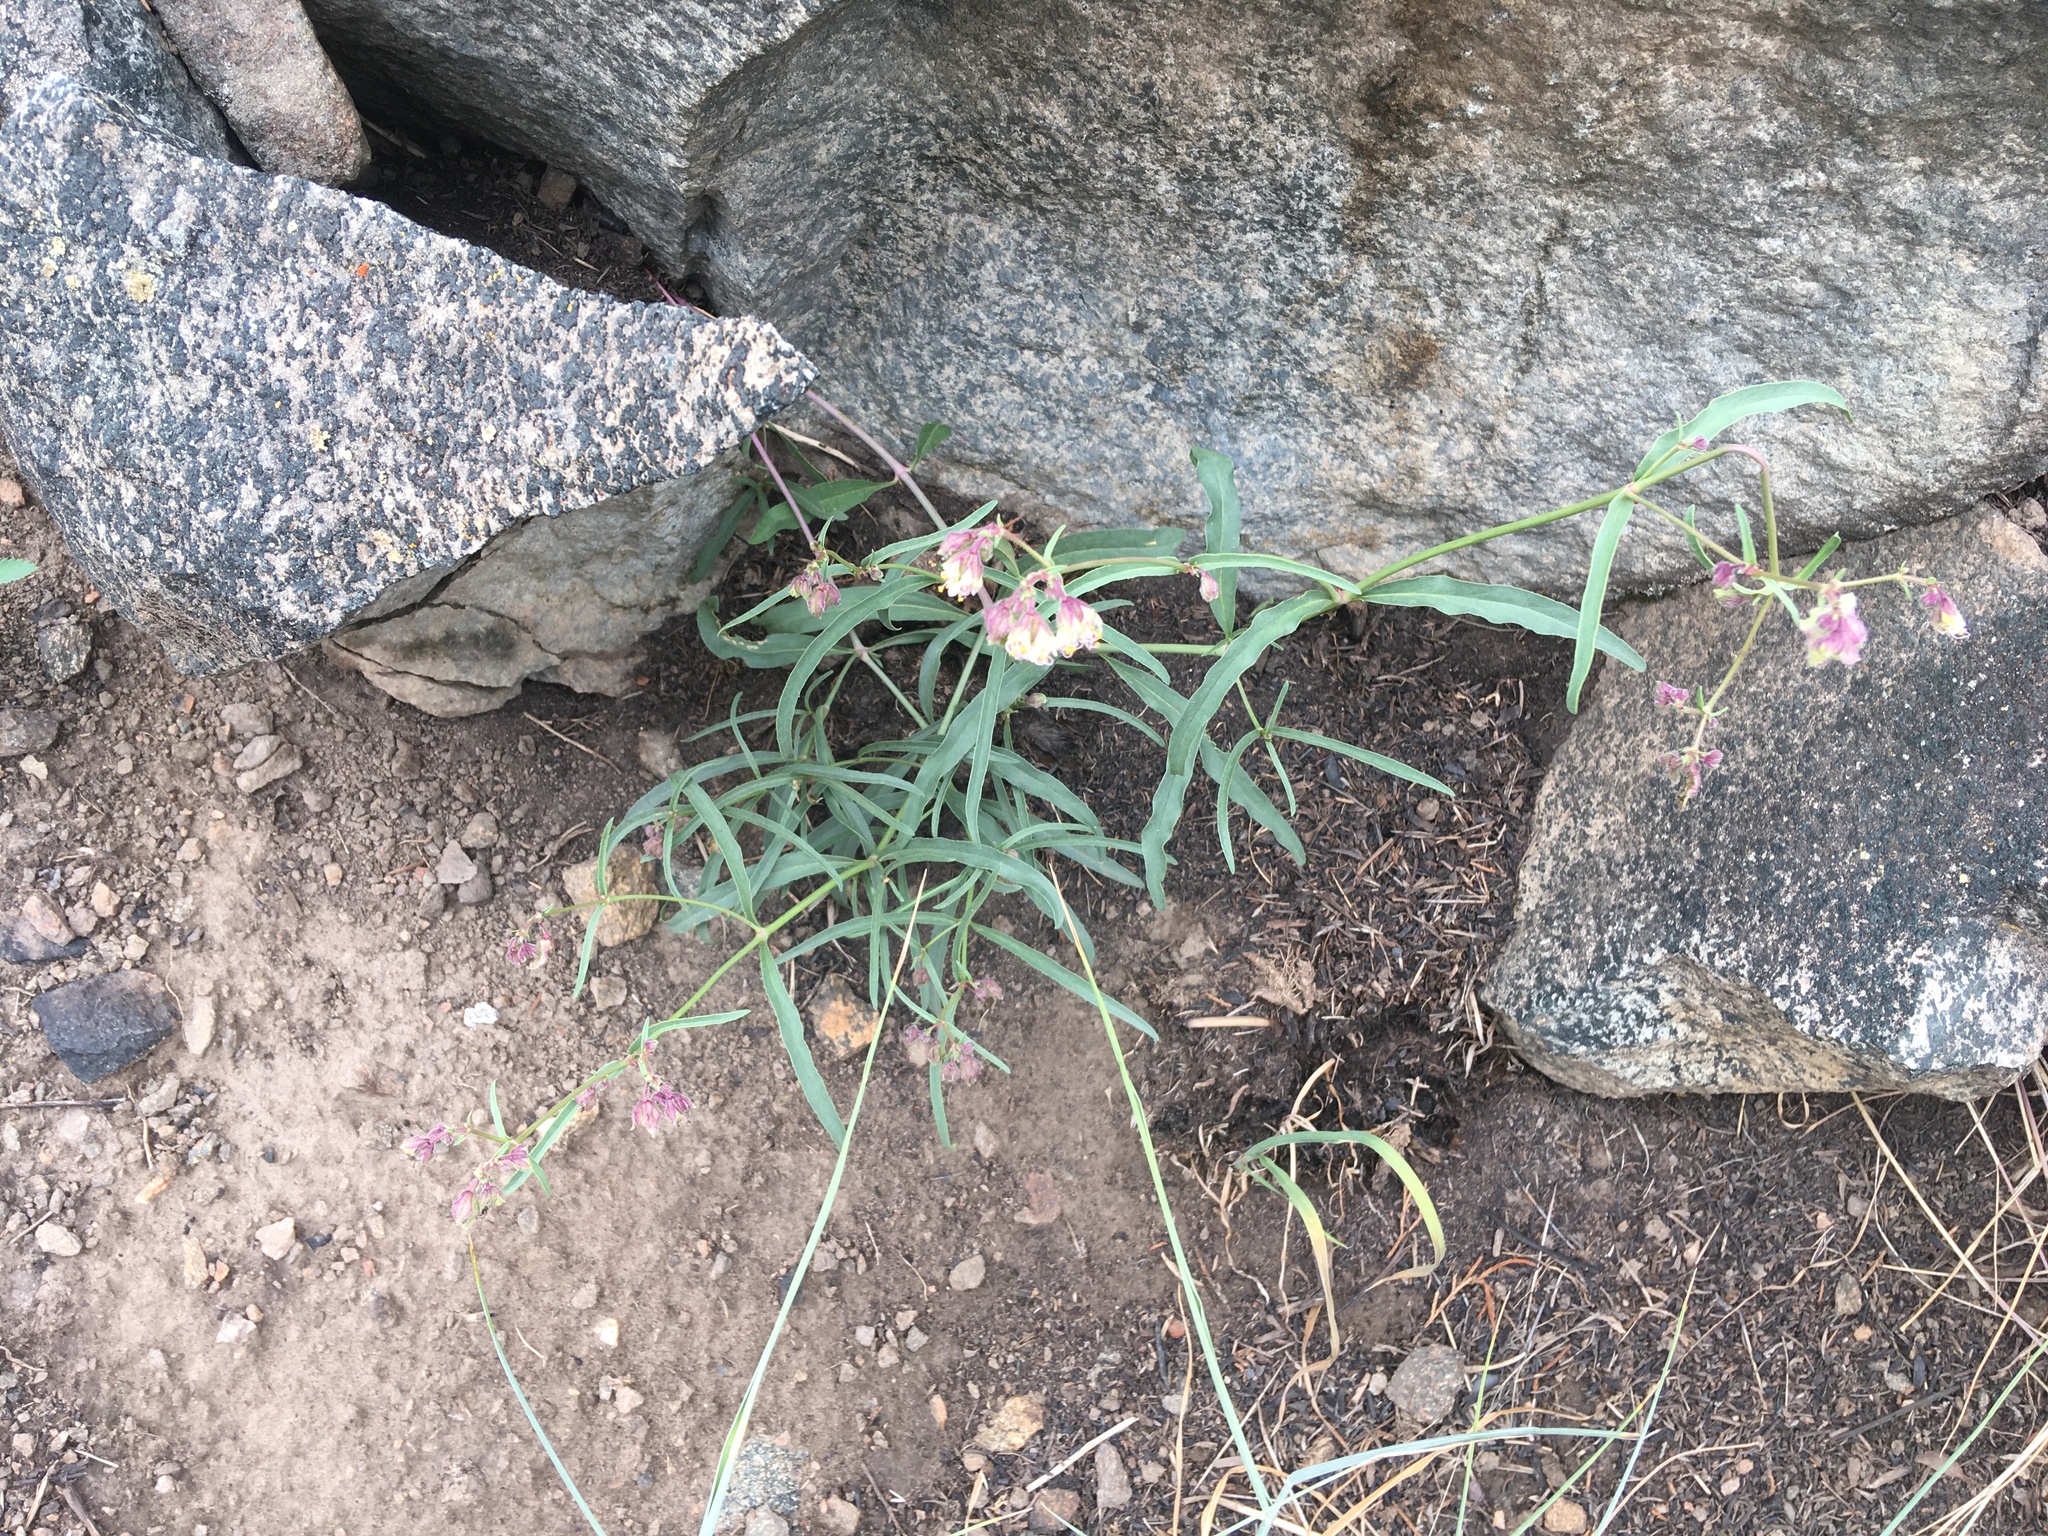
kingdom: Plantae
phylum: Tracheophyta
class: Magnoliopsida
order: Caryophyllales
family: Nyctaginaceae
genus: Mirabilis
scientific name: Mirabilis linearis
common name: Linear-leaved four-o'clock
